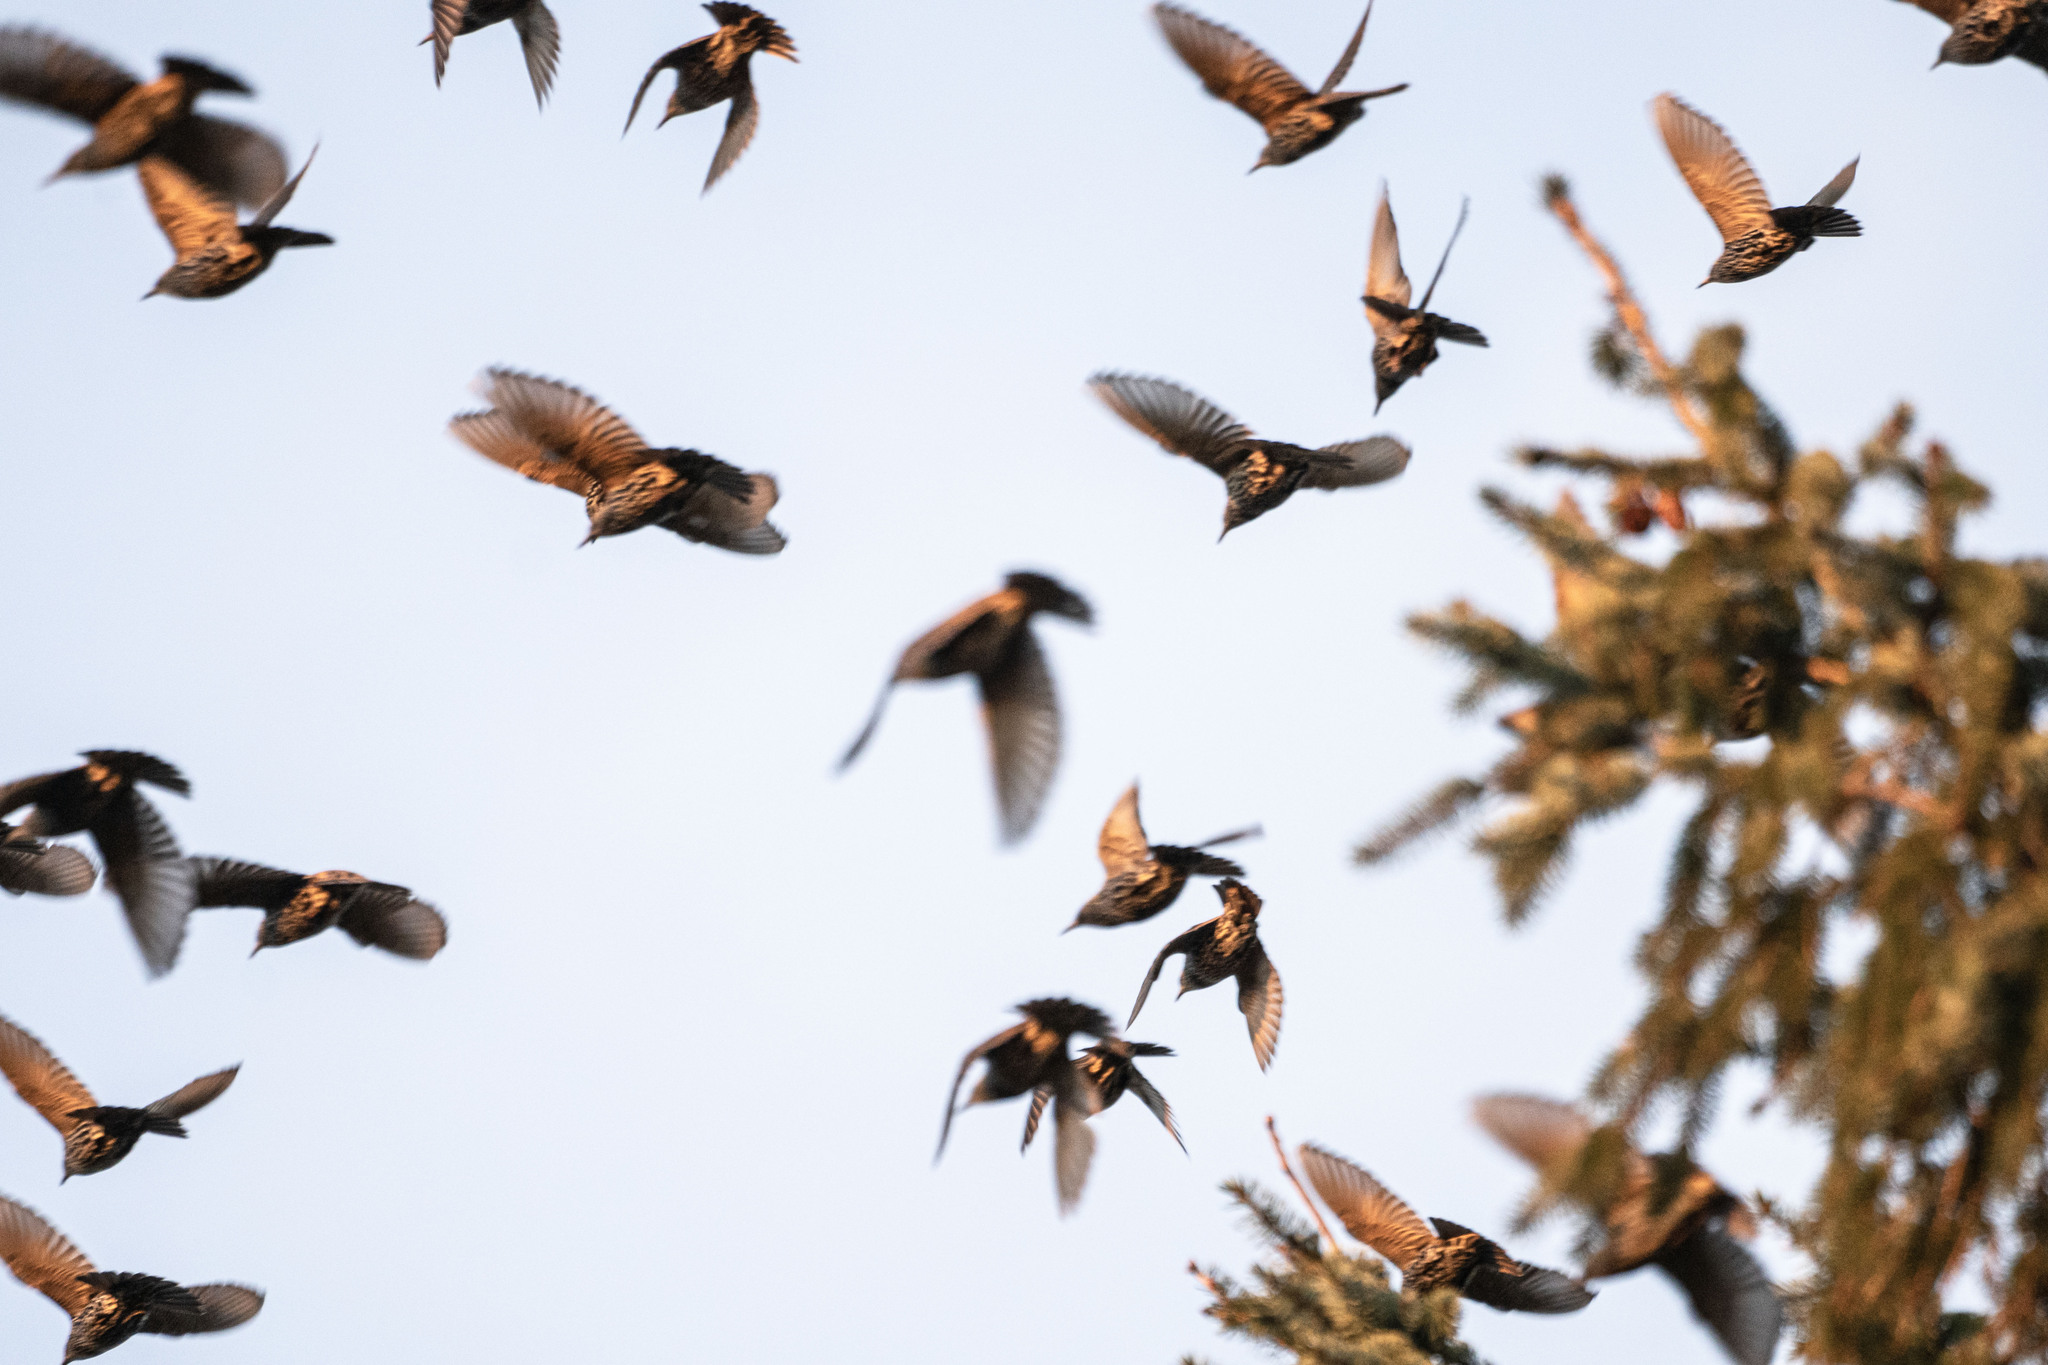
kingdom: Animalia
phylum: Chordata
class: Aves
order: Passeriformes
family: Sturnidae
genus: Sturnus
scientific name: Sturnus vulgaris
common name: Common starling
